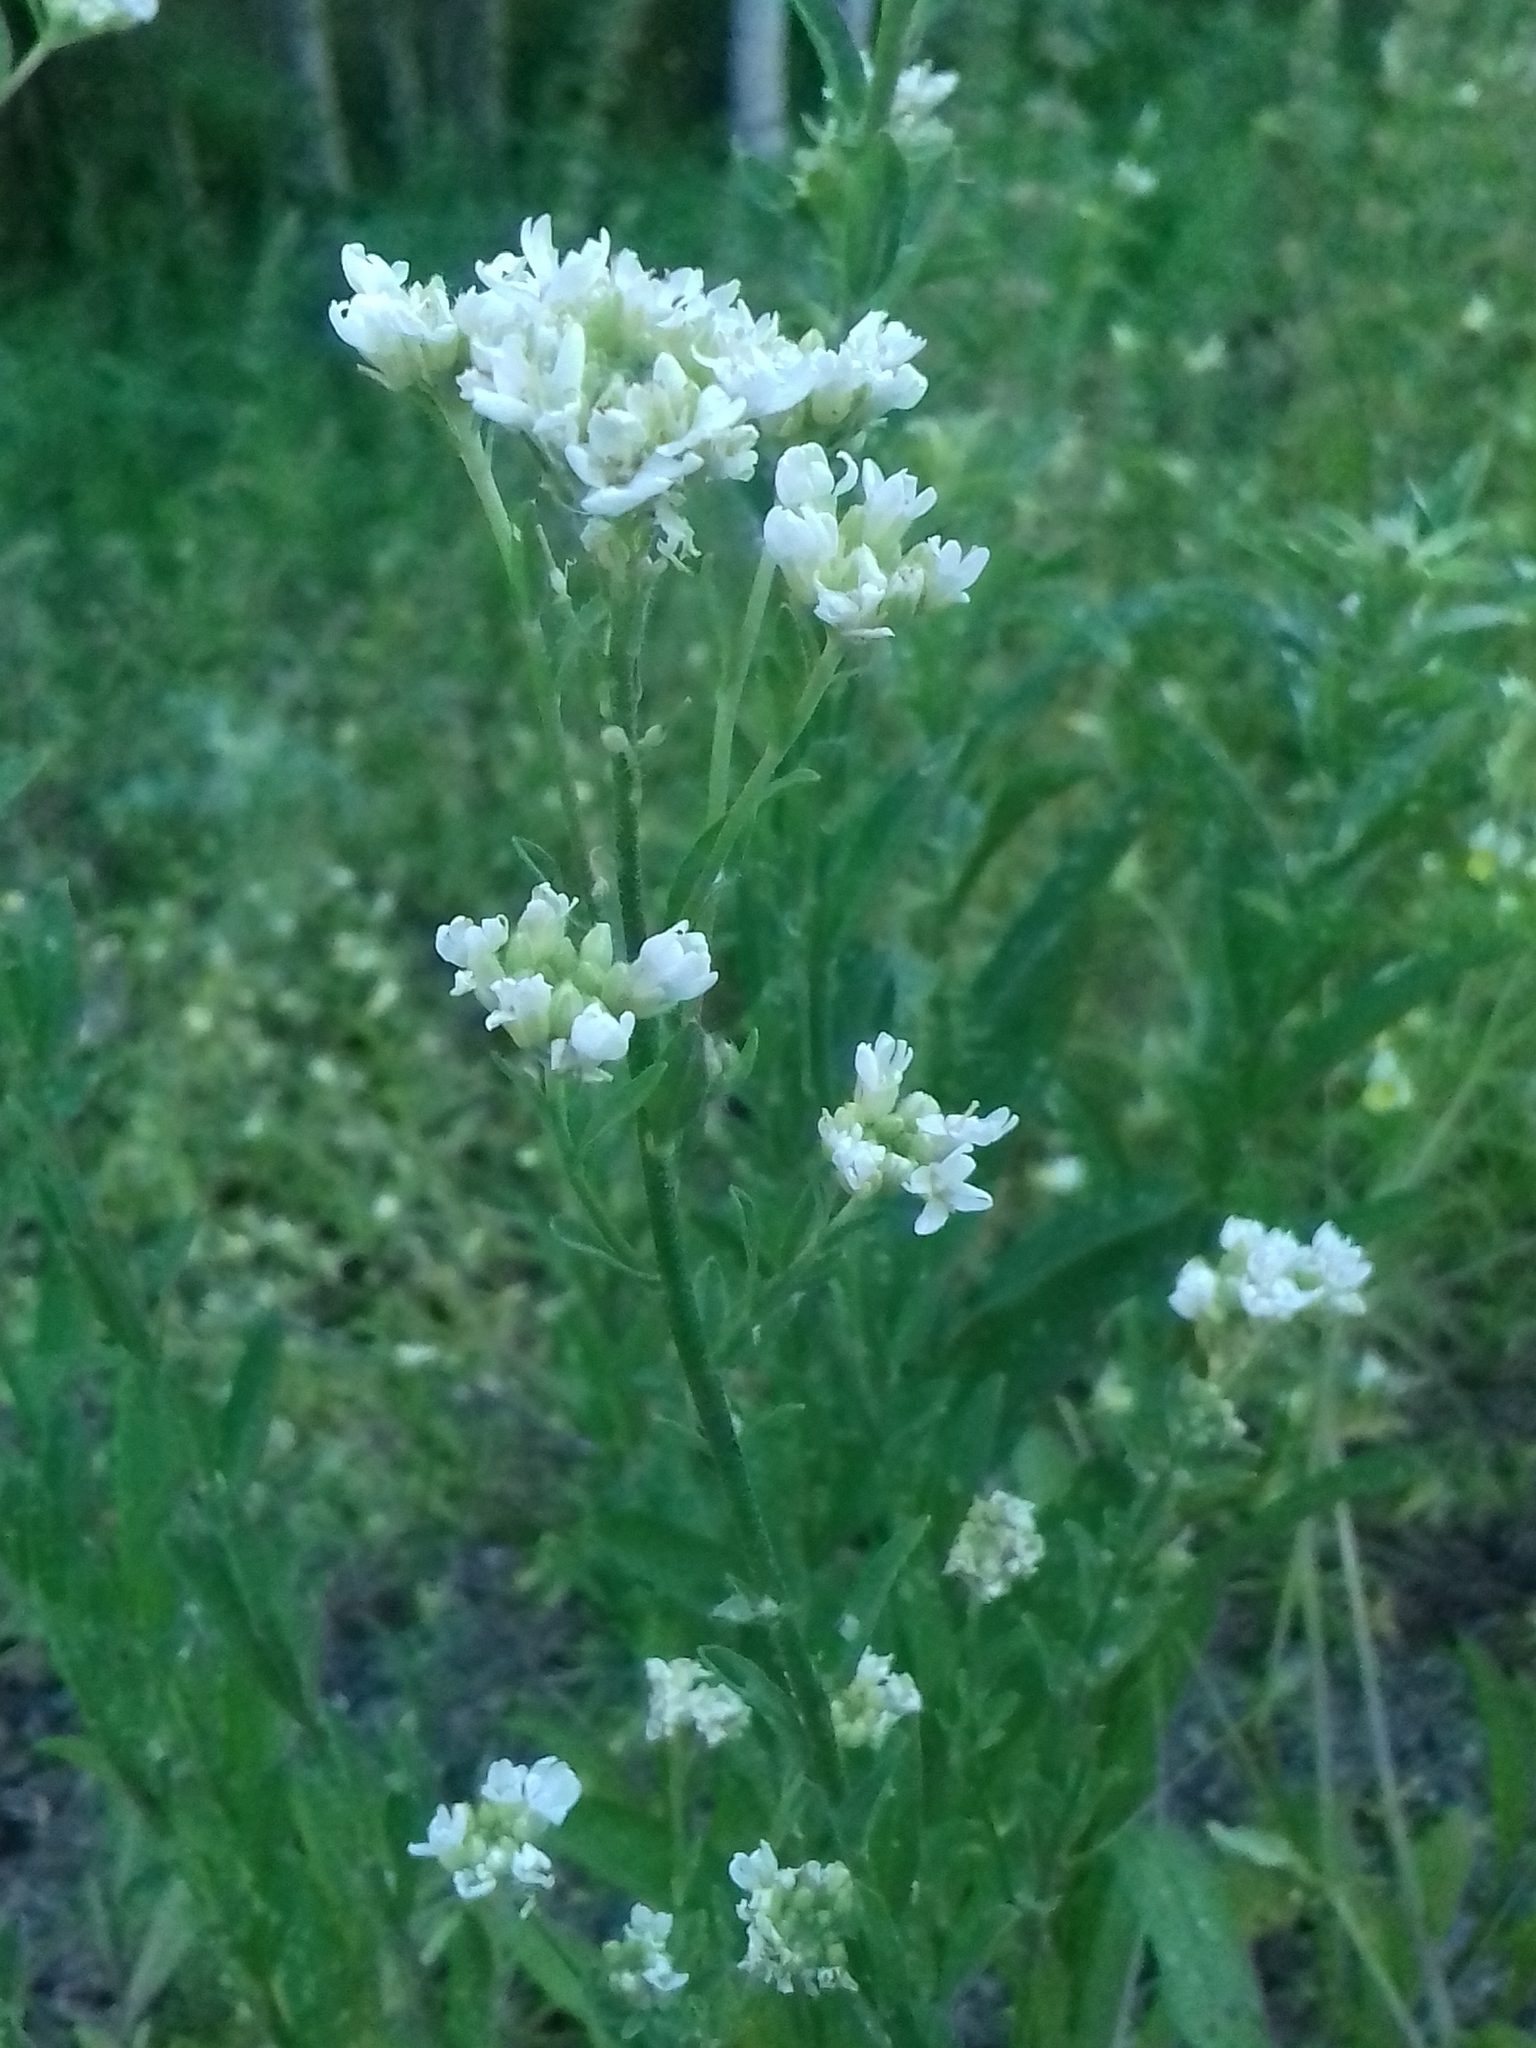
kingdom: Plantae
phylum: Tracheophyta
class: Magnoliopsida
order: Brassicales
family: Brassicaceae
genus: Berteroa
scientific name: Berteroa incana
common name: Hoary alison
